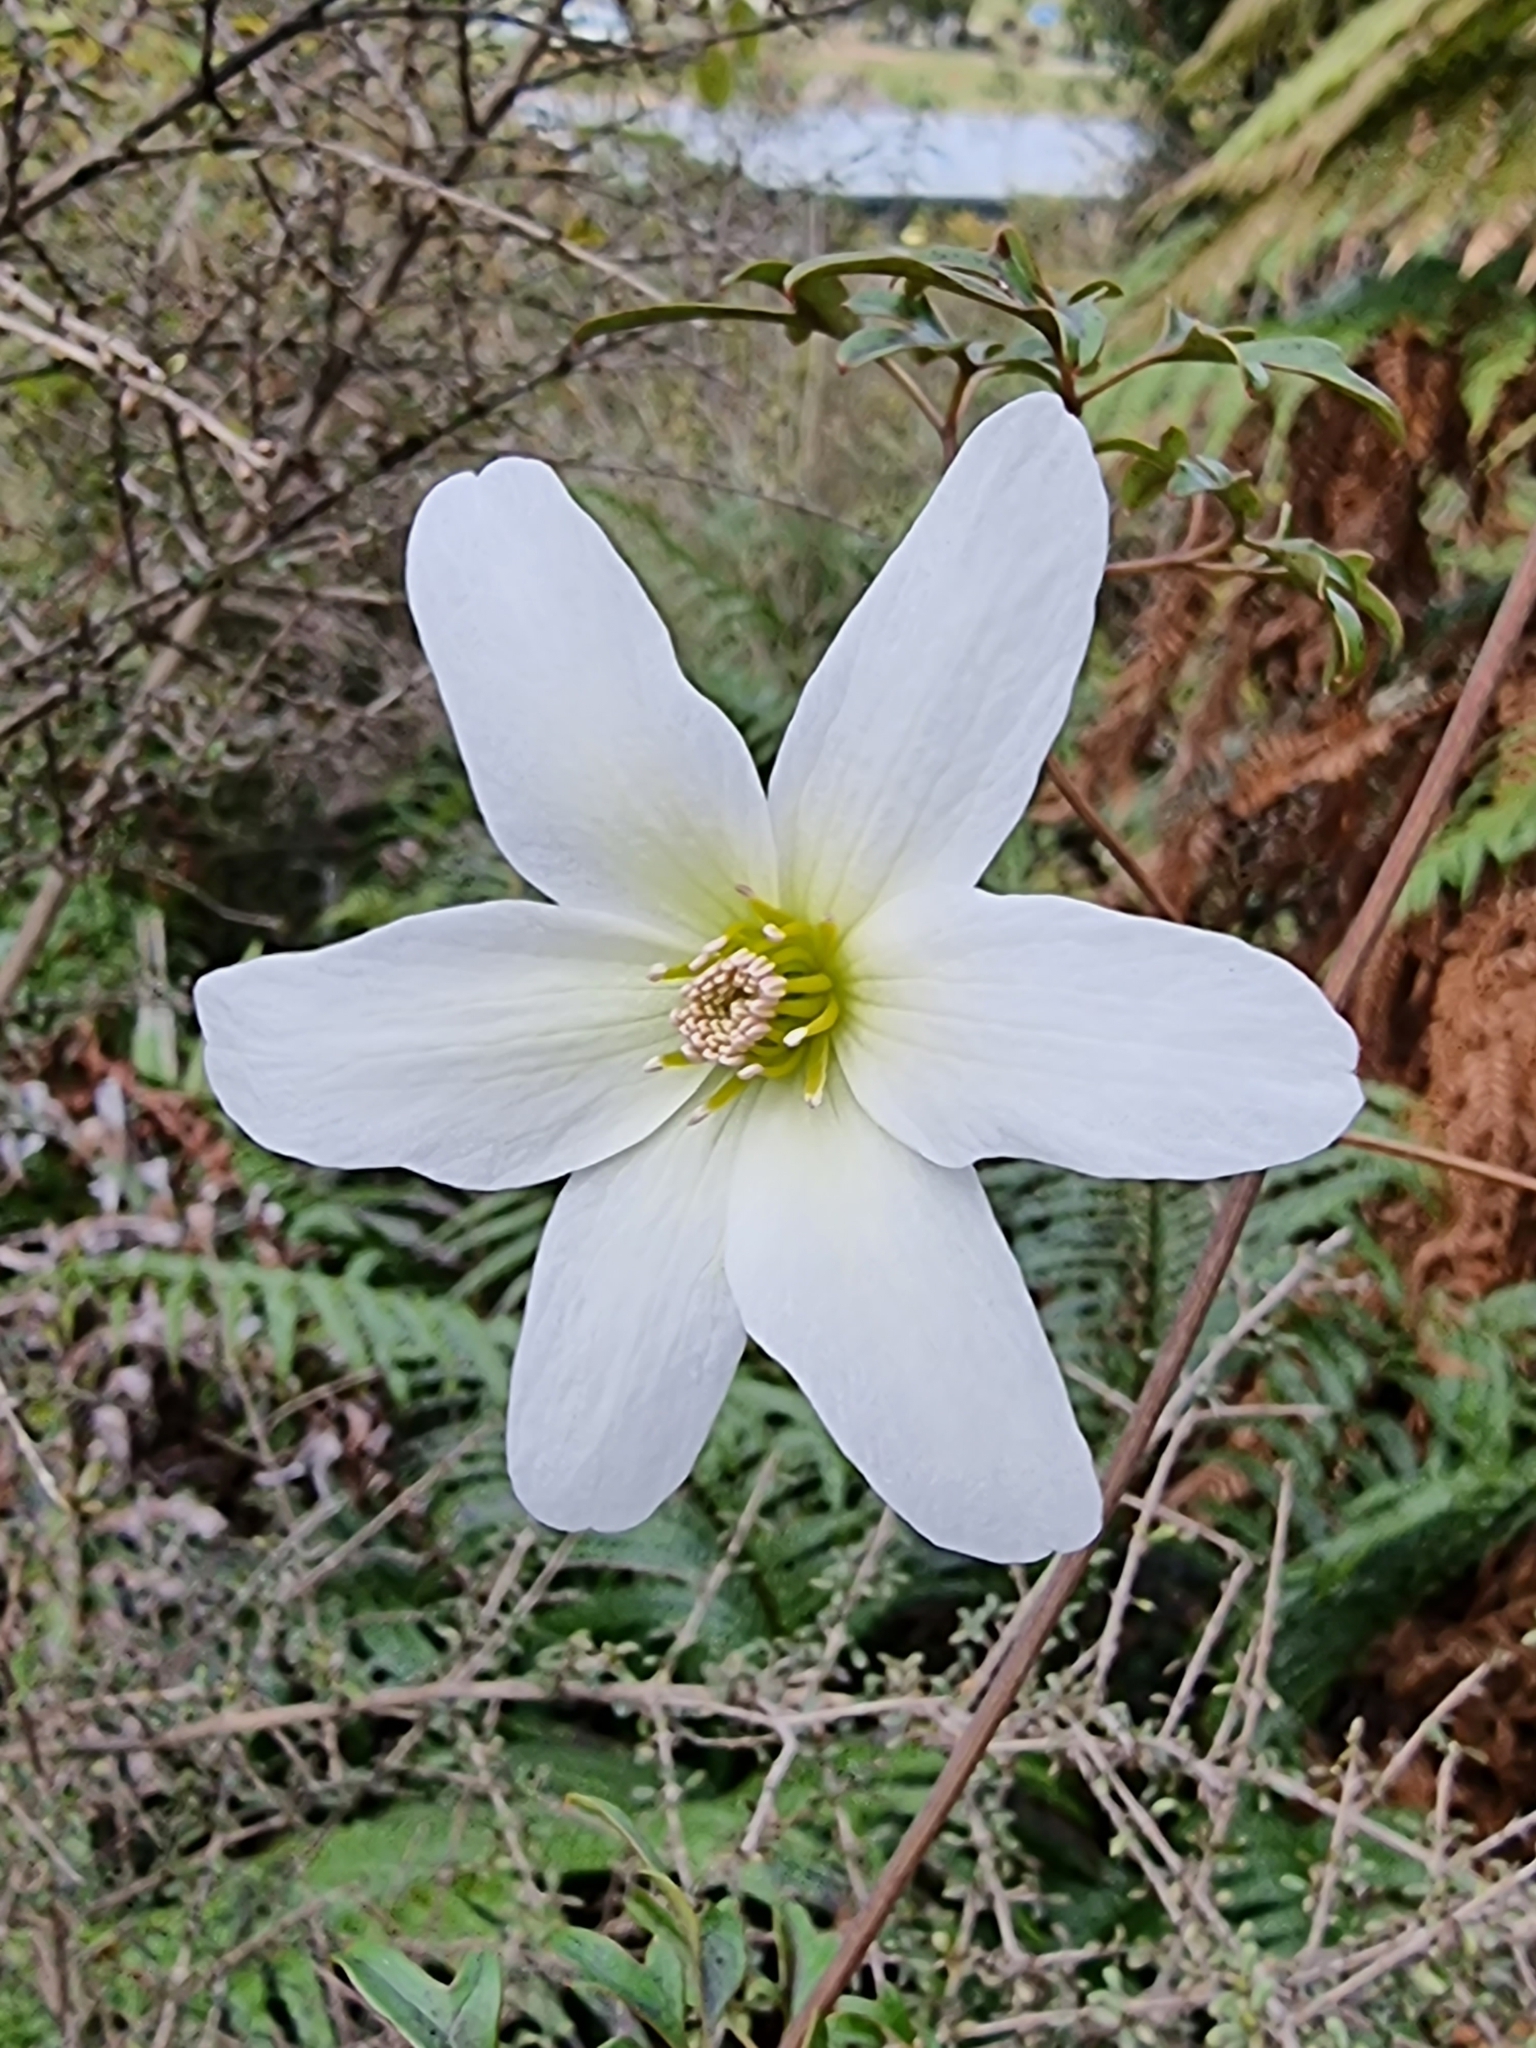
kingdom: Plantae
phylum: Tracheophyta
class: Magnoliopsida
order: Ranunculales
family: Ranunculaceae
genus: Clematis
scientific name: Clematis paniculata
